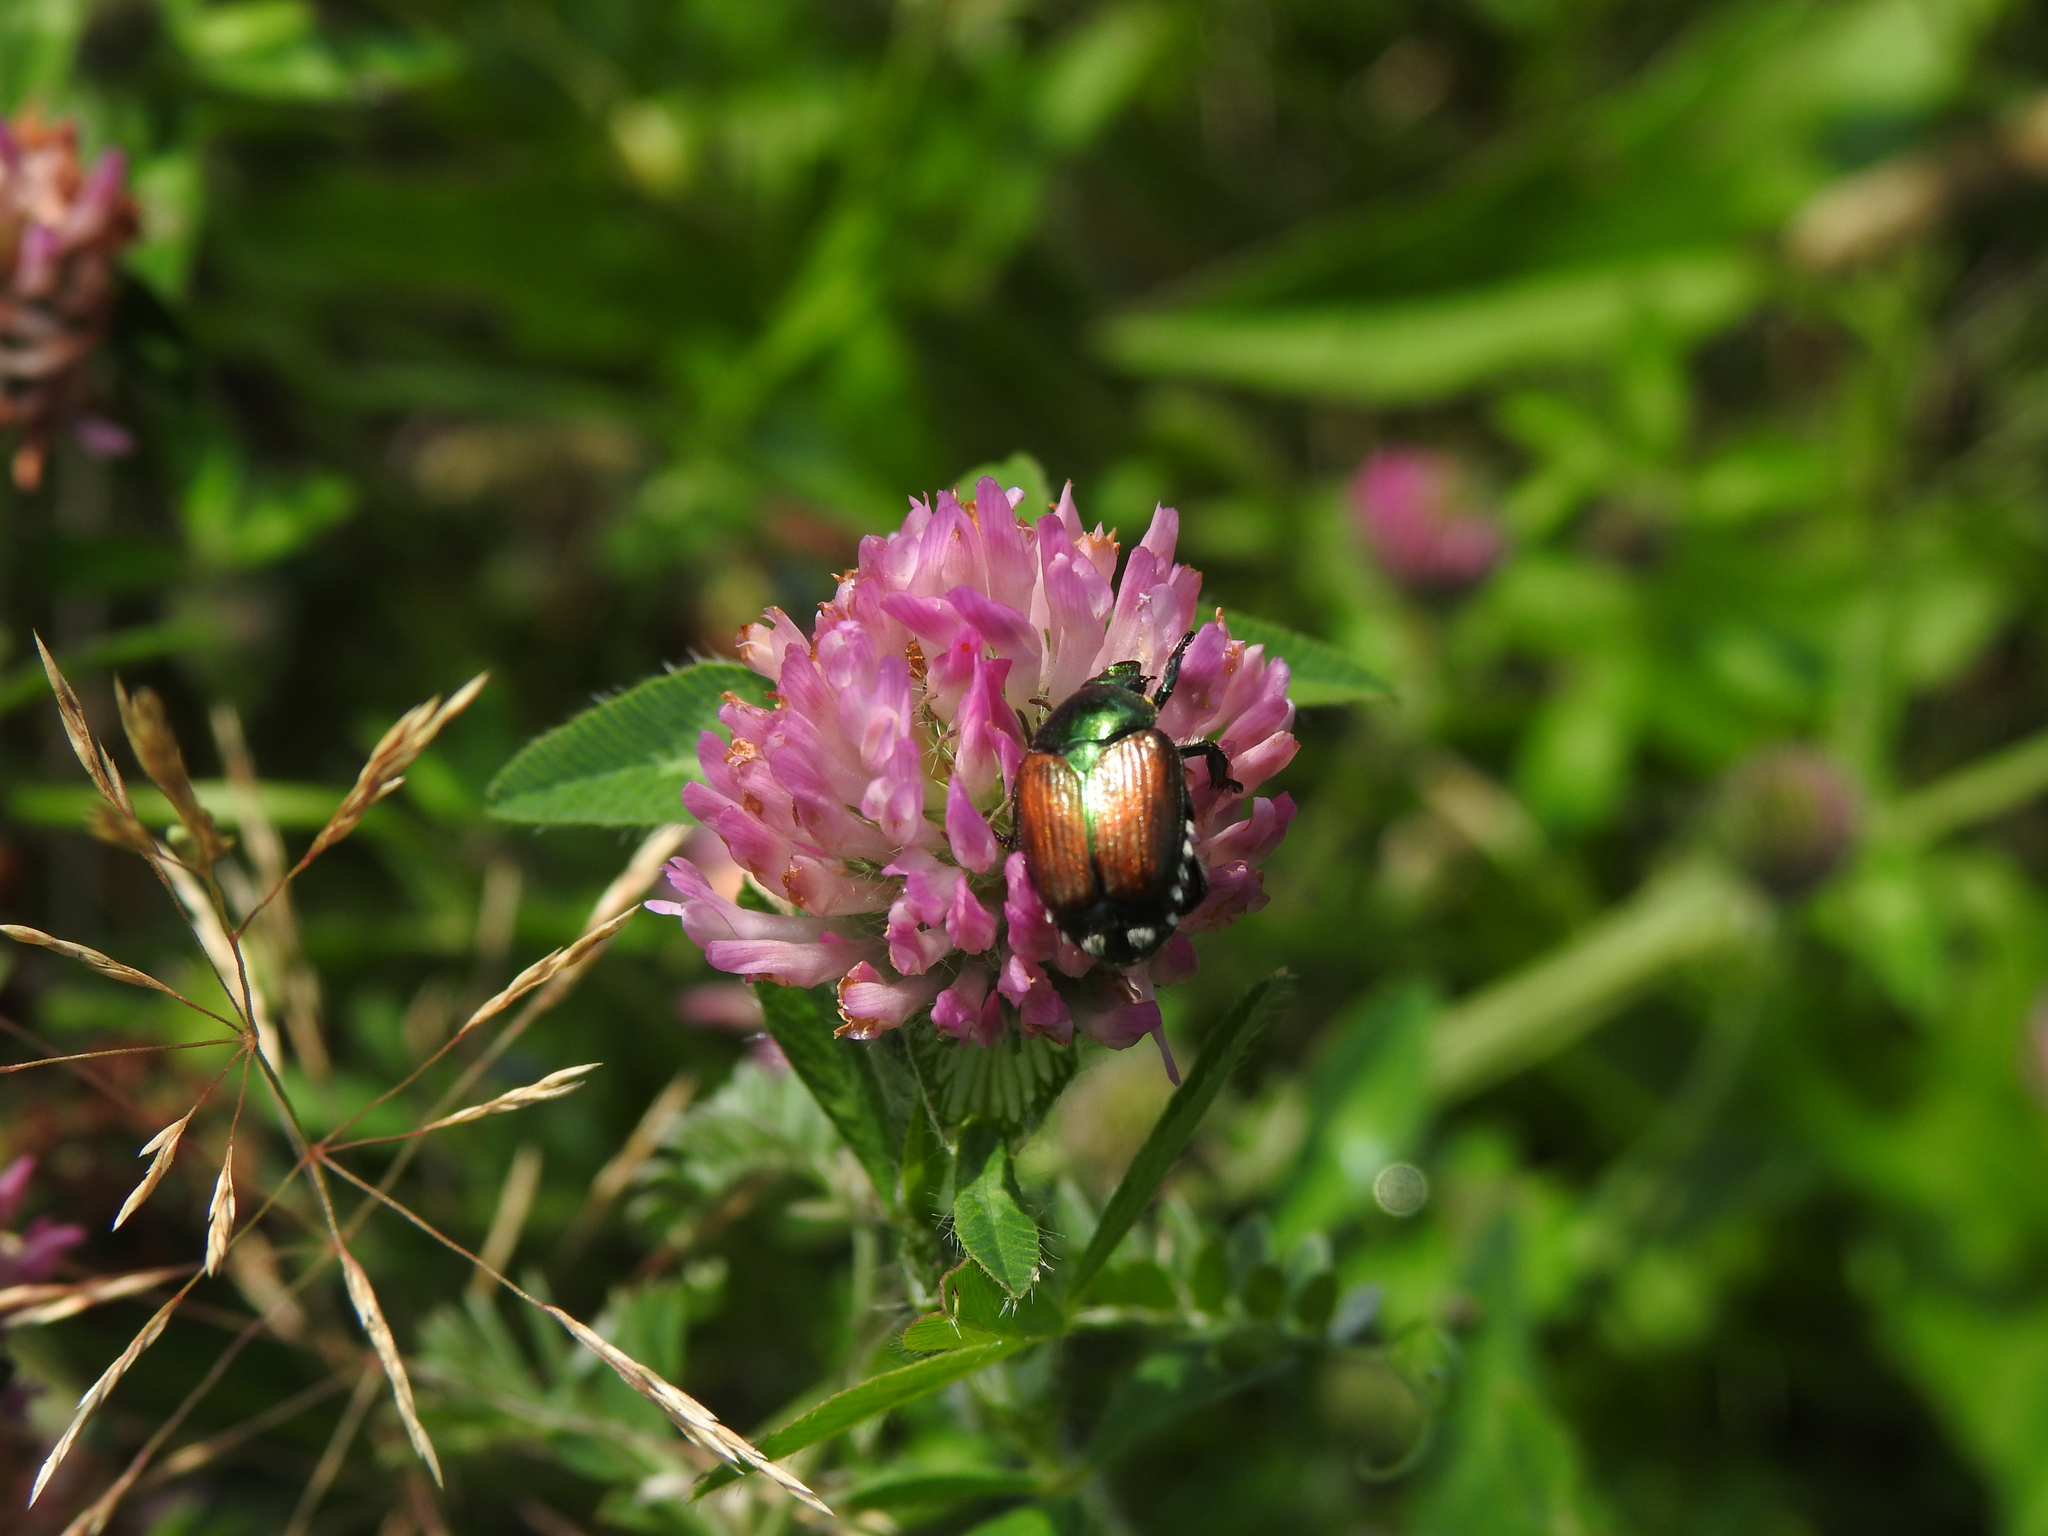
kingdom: Animalia
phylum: Arthropoda
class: Insecta
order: Coleoptera
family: Scarabaeidae
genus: Popillia
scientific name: Popillia japonica
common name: Japanese beetle
